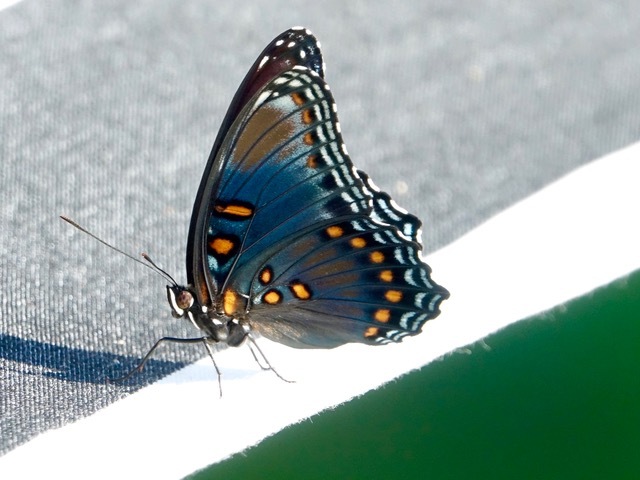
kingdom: Animalia
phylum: Arthropoda
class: Insecta
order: Lepidoptera
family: Nymphalidae
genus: Limenitis
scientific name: Limenitis astyanax
